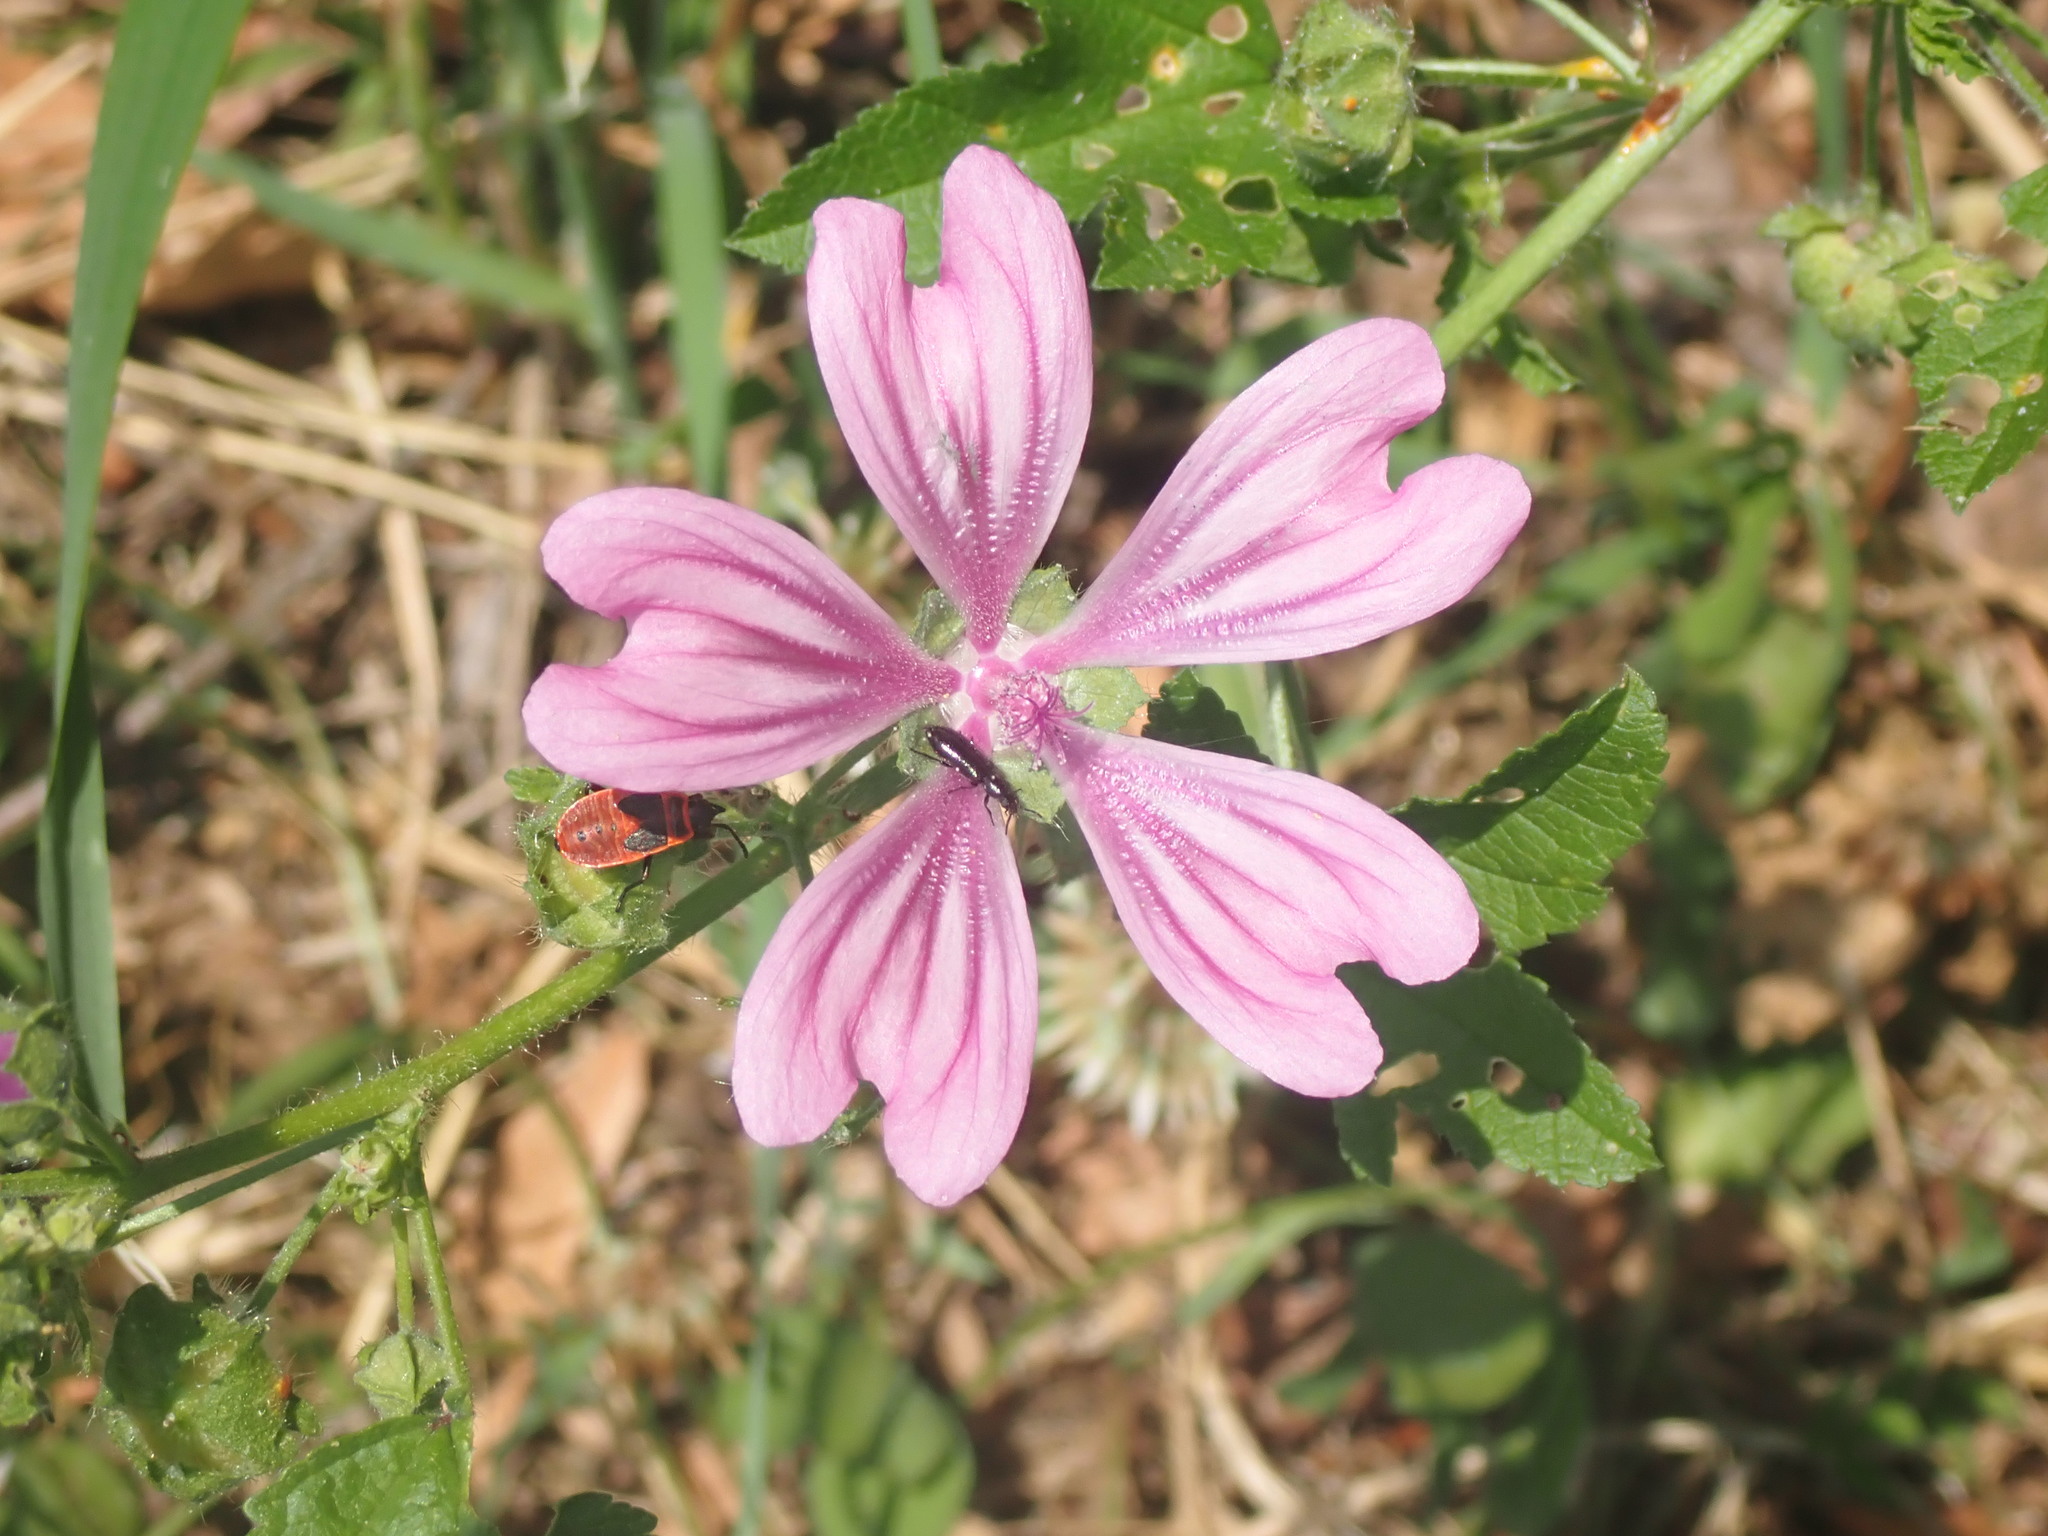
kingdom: Plantae
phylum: Tracheophyta
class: Magnoliopsida
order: Malvales
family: Malvaceae
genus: Malva
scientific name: Malva sylvestris
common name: Common mallow
